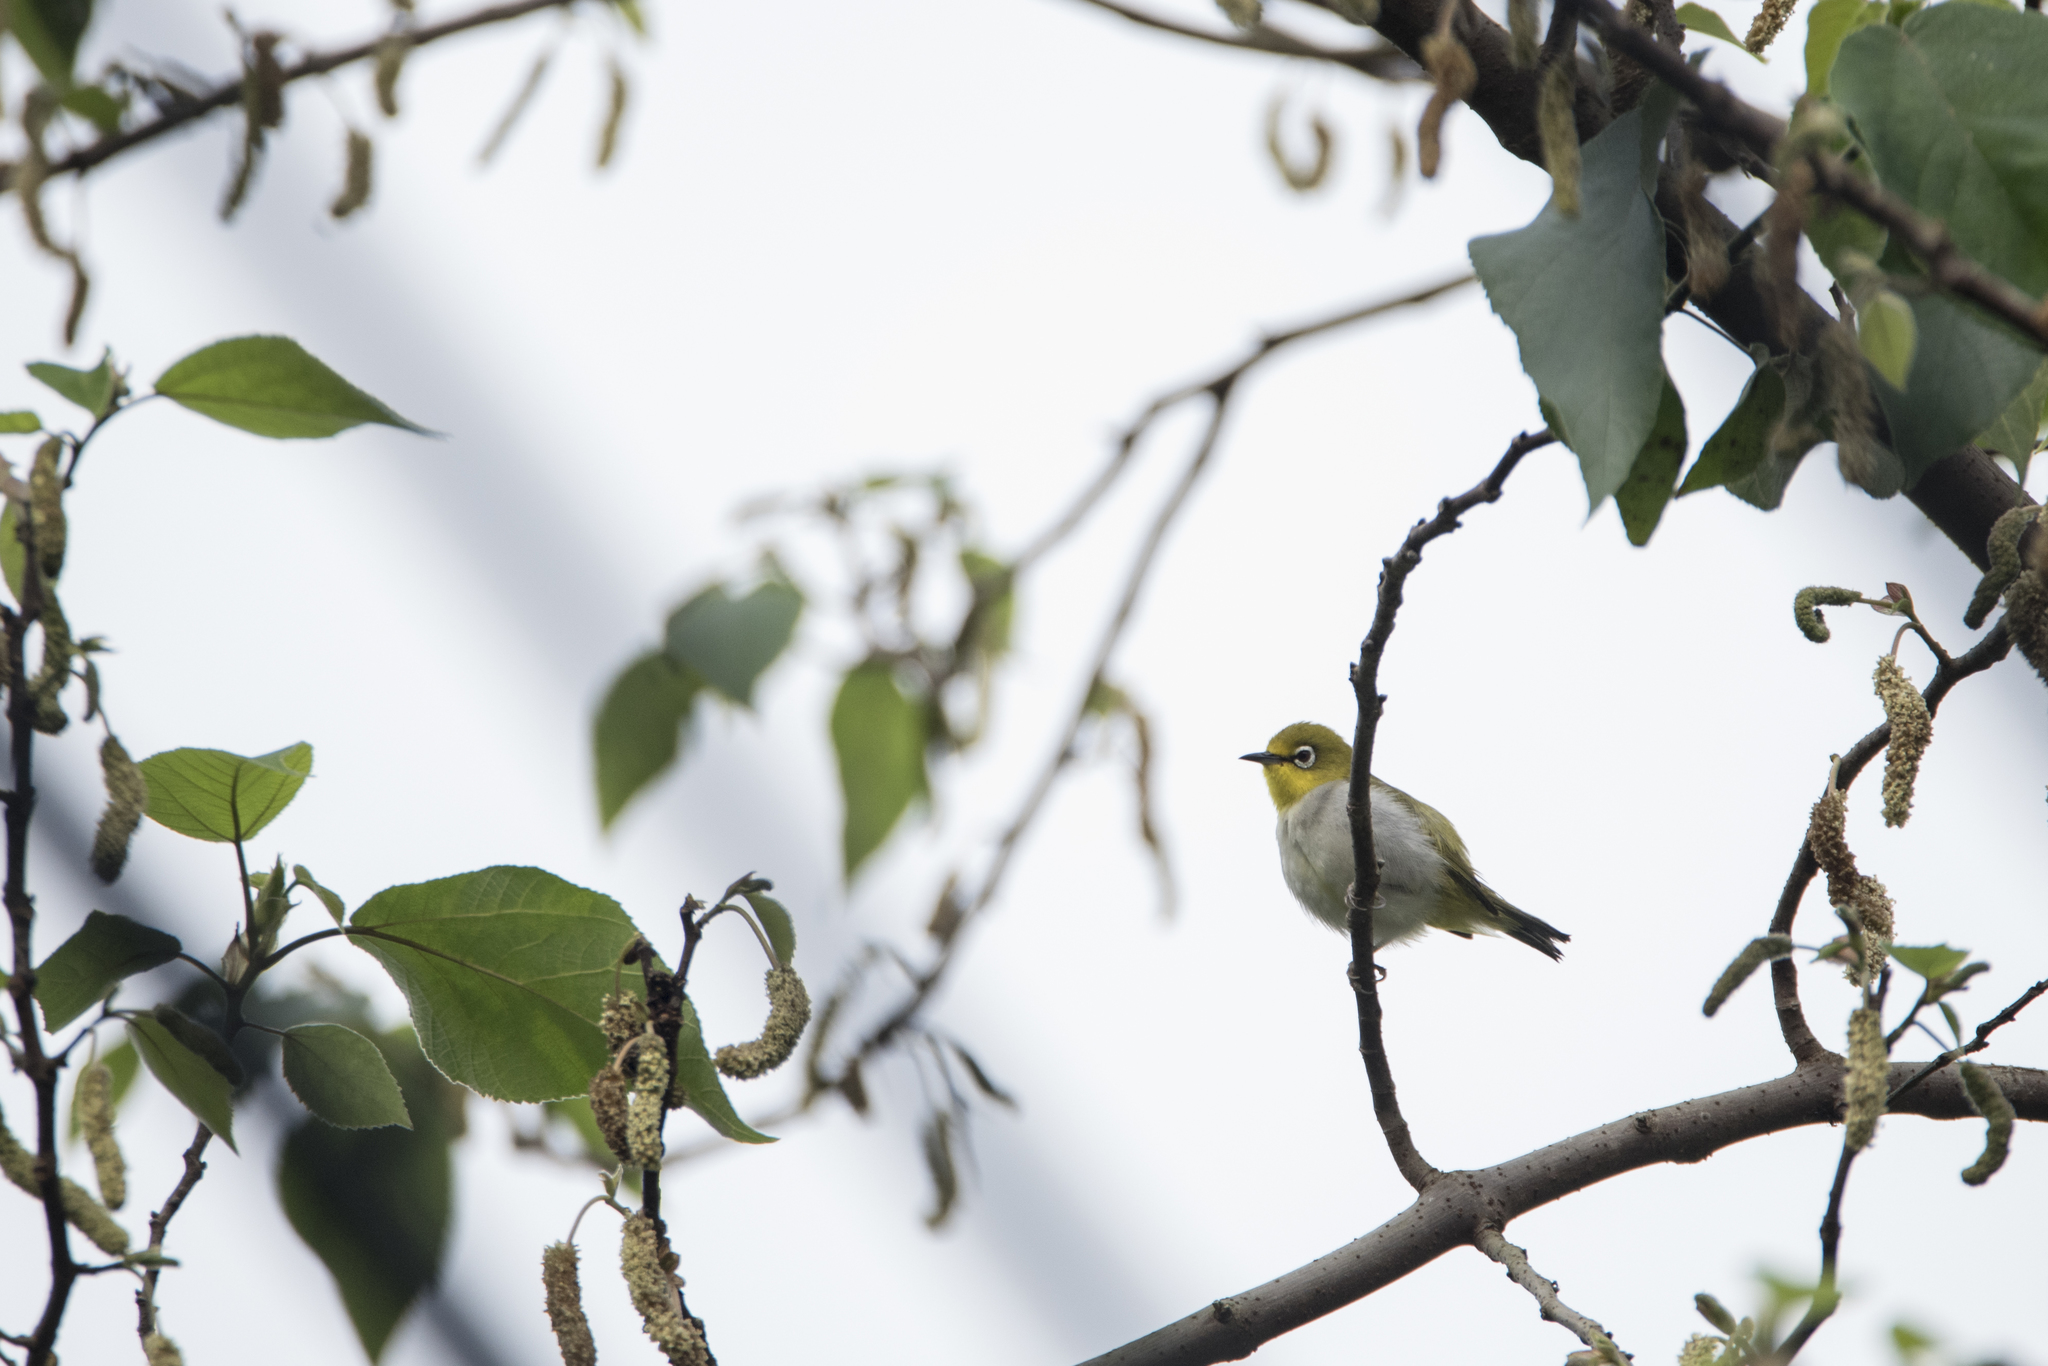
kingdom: Animalia
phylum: Chordata
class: Aves
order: Passeriformes
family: Zosteropidae
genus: Zosterops
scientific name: Zosterops simplex
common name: Swinhoe's white-eye
